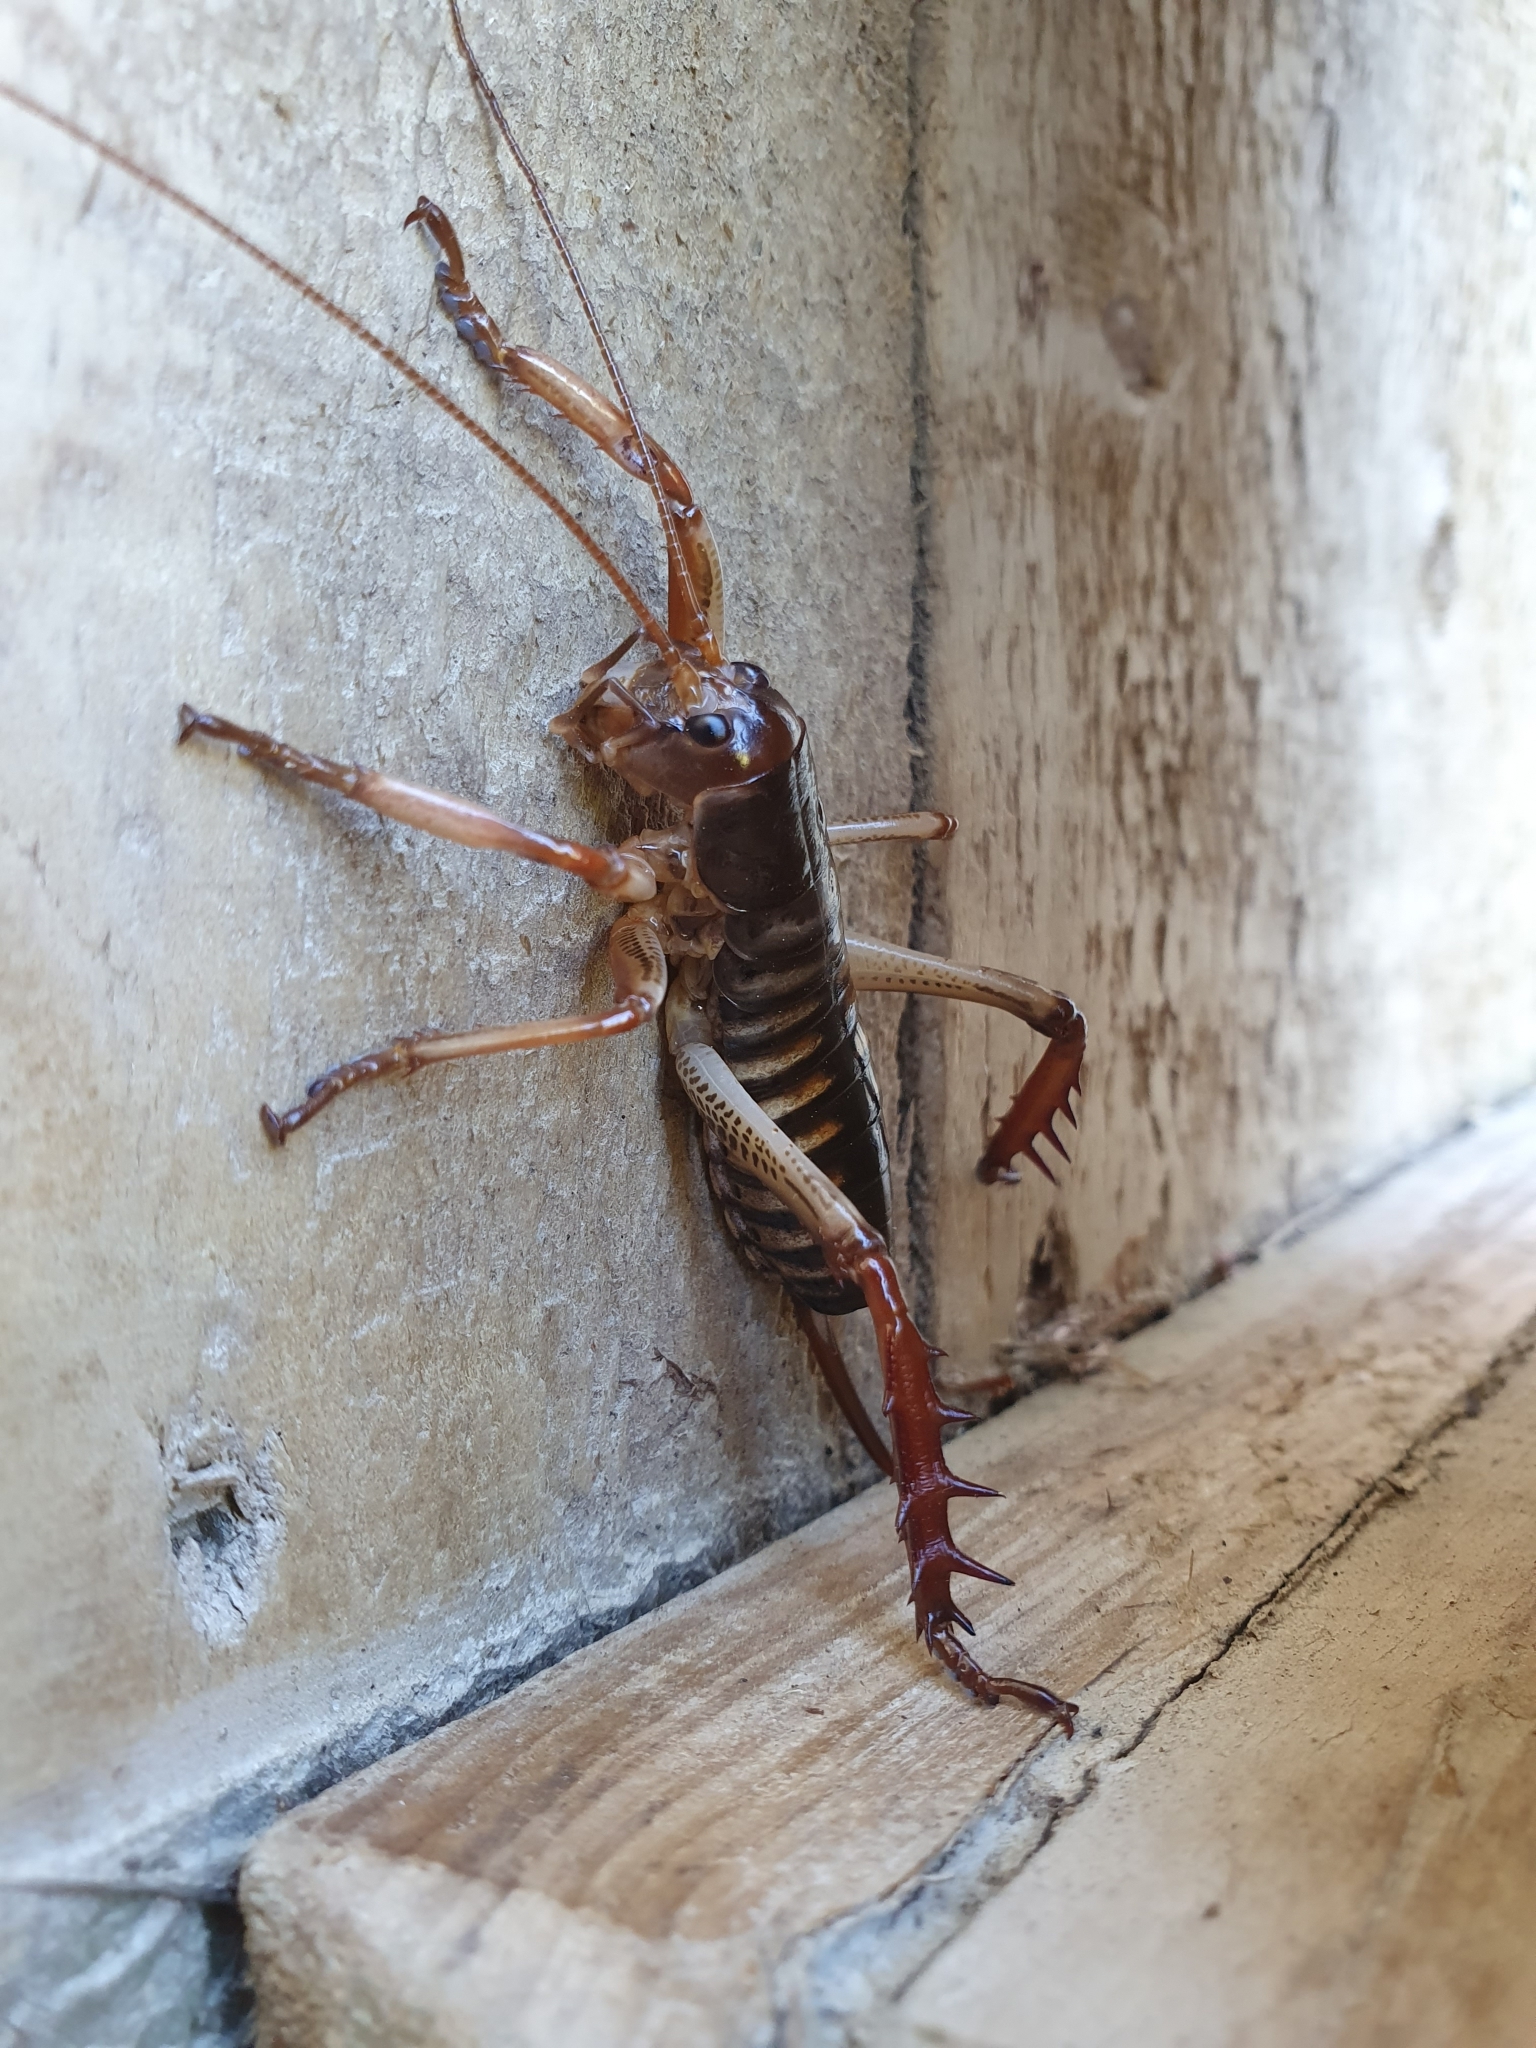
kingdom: Animalia
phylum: Arthropoda
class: Insecta
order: Orthoptera
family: Anostostomatidae
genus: Hemideina
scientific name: Hemideina crassidens
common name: Wellington tree weta
